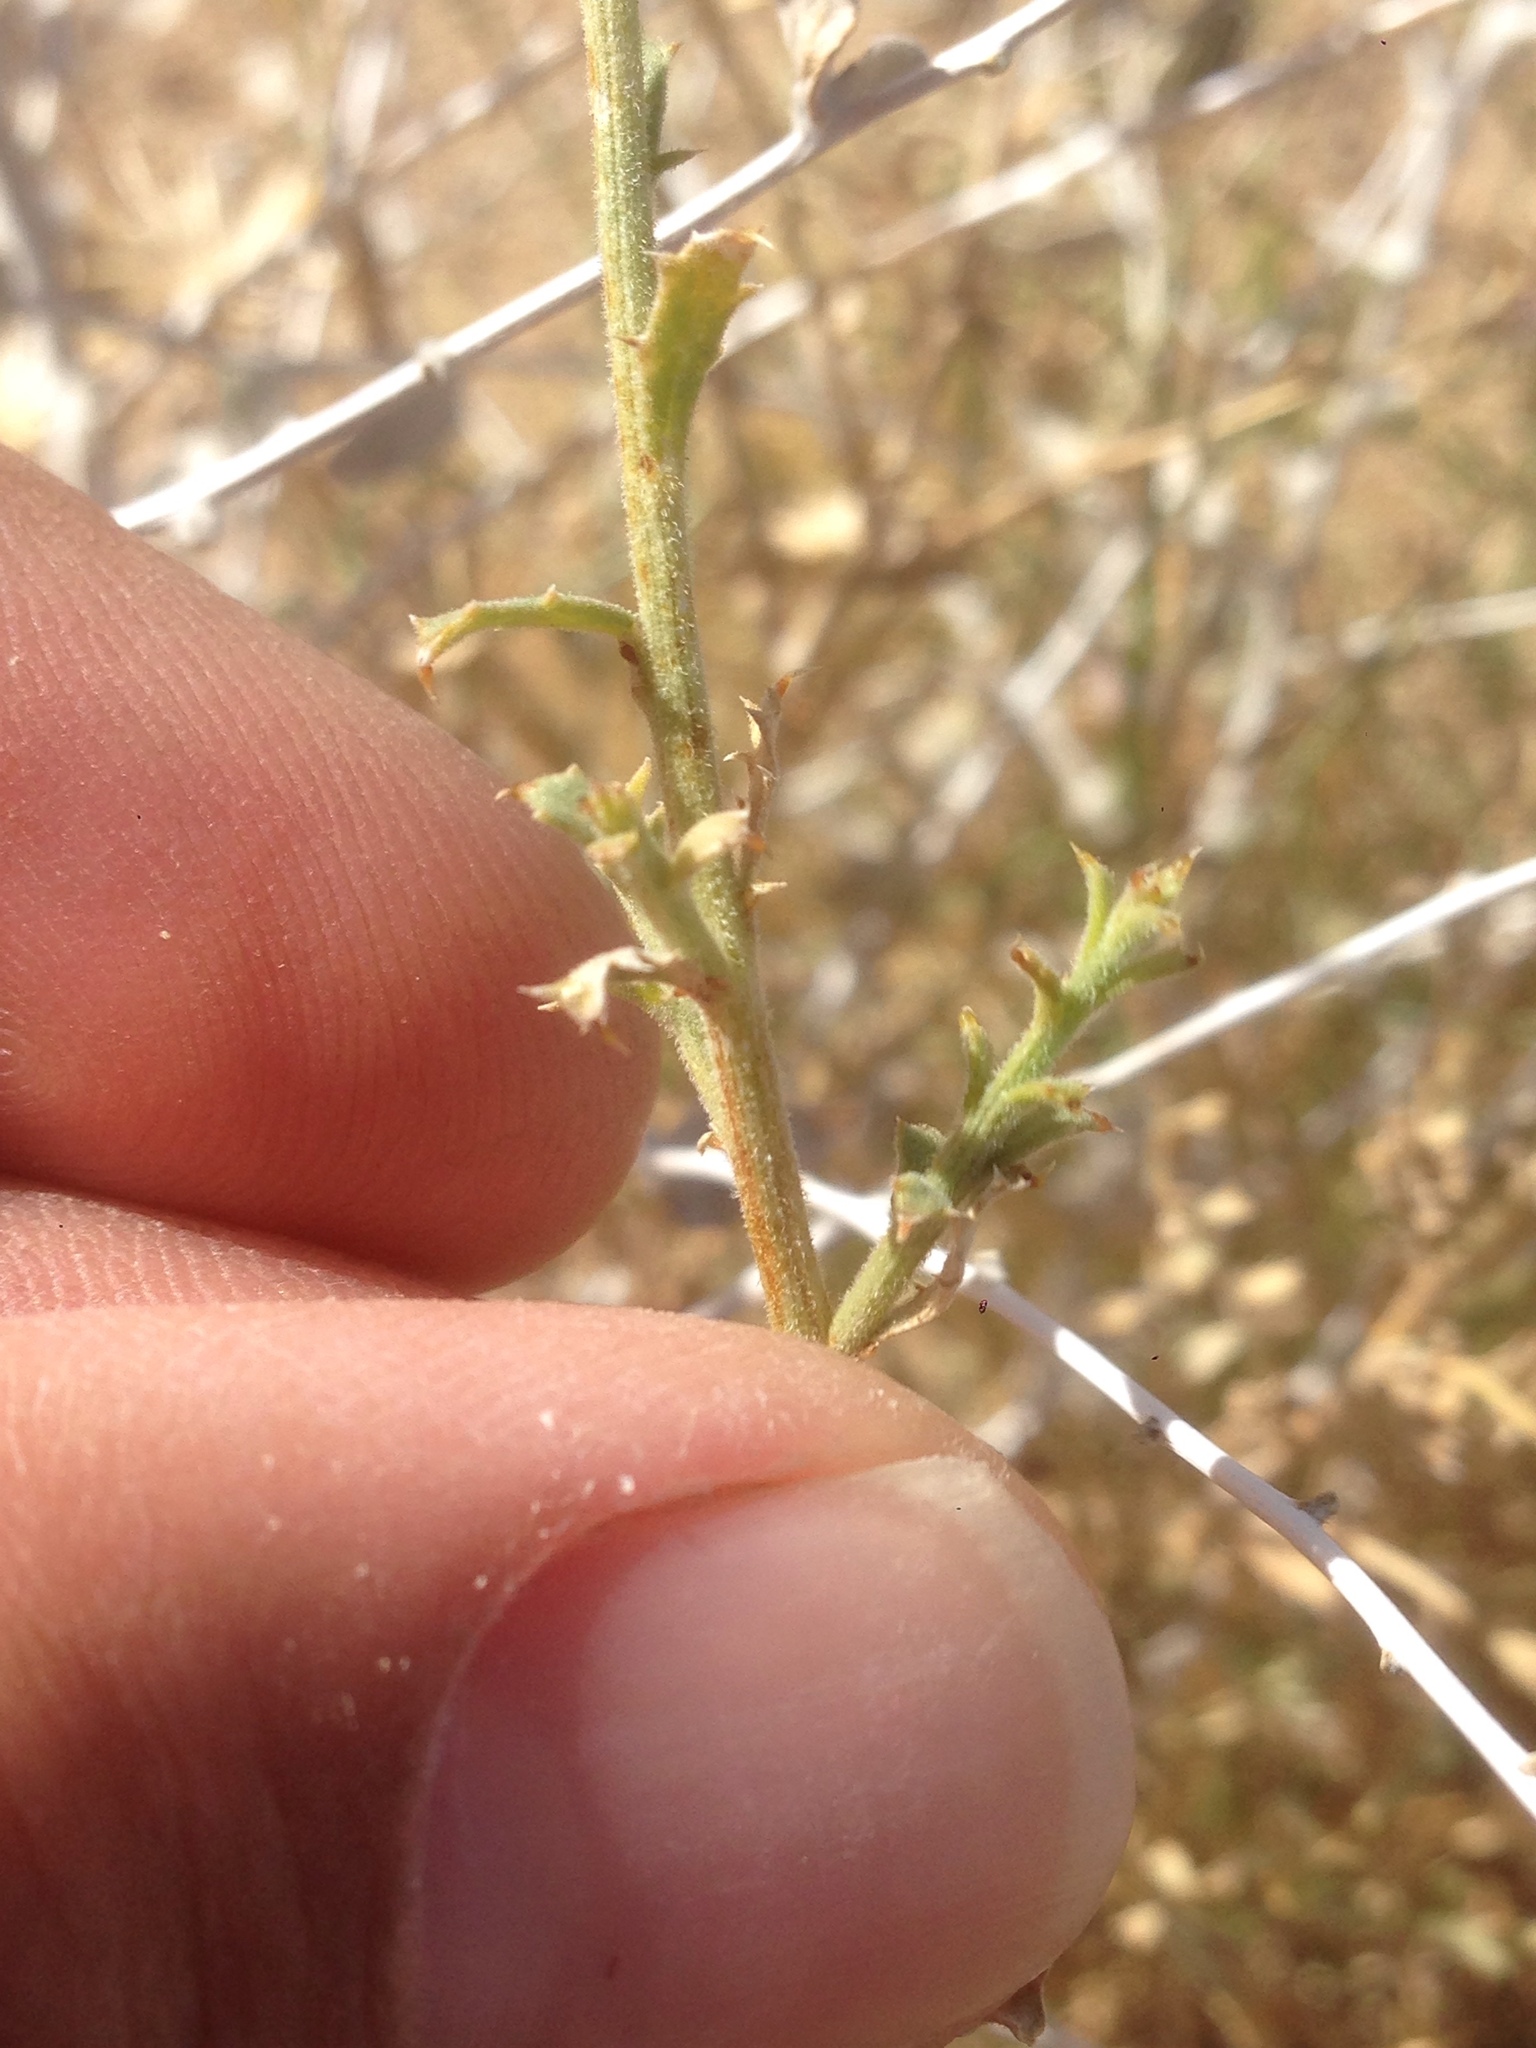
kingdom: Plantae
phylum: Tracheophyta
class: Magnoliopsida
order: Asterales
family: Asteraceae
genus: Adenophyllum
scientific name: Adenophyllum cooperi
